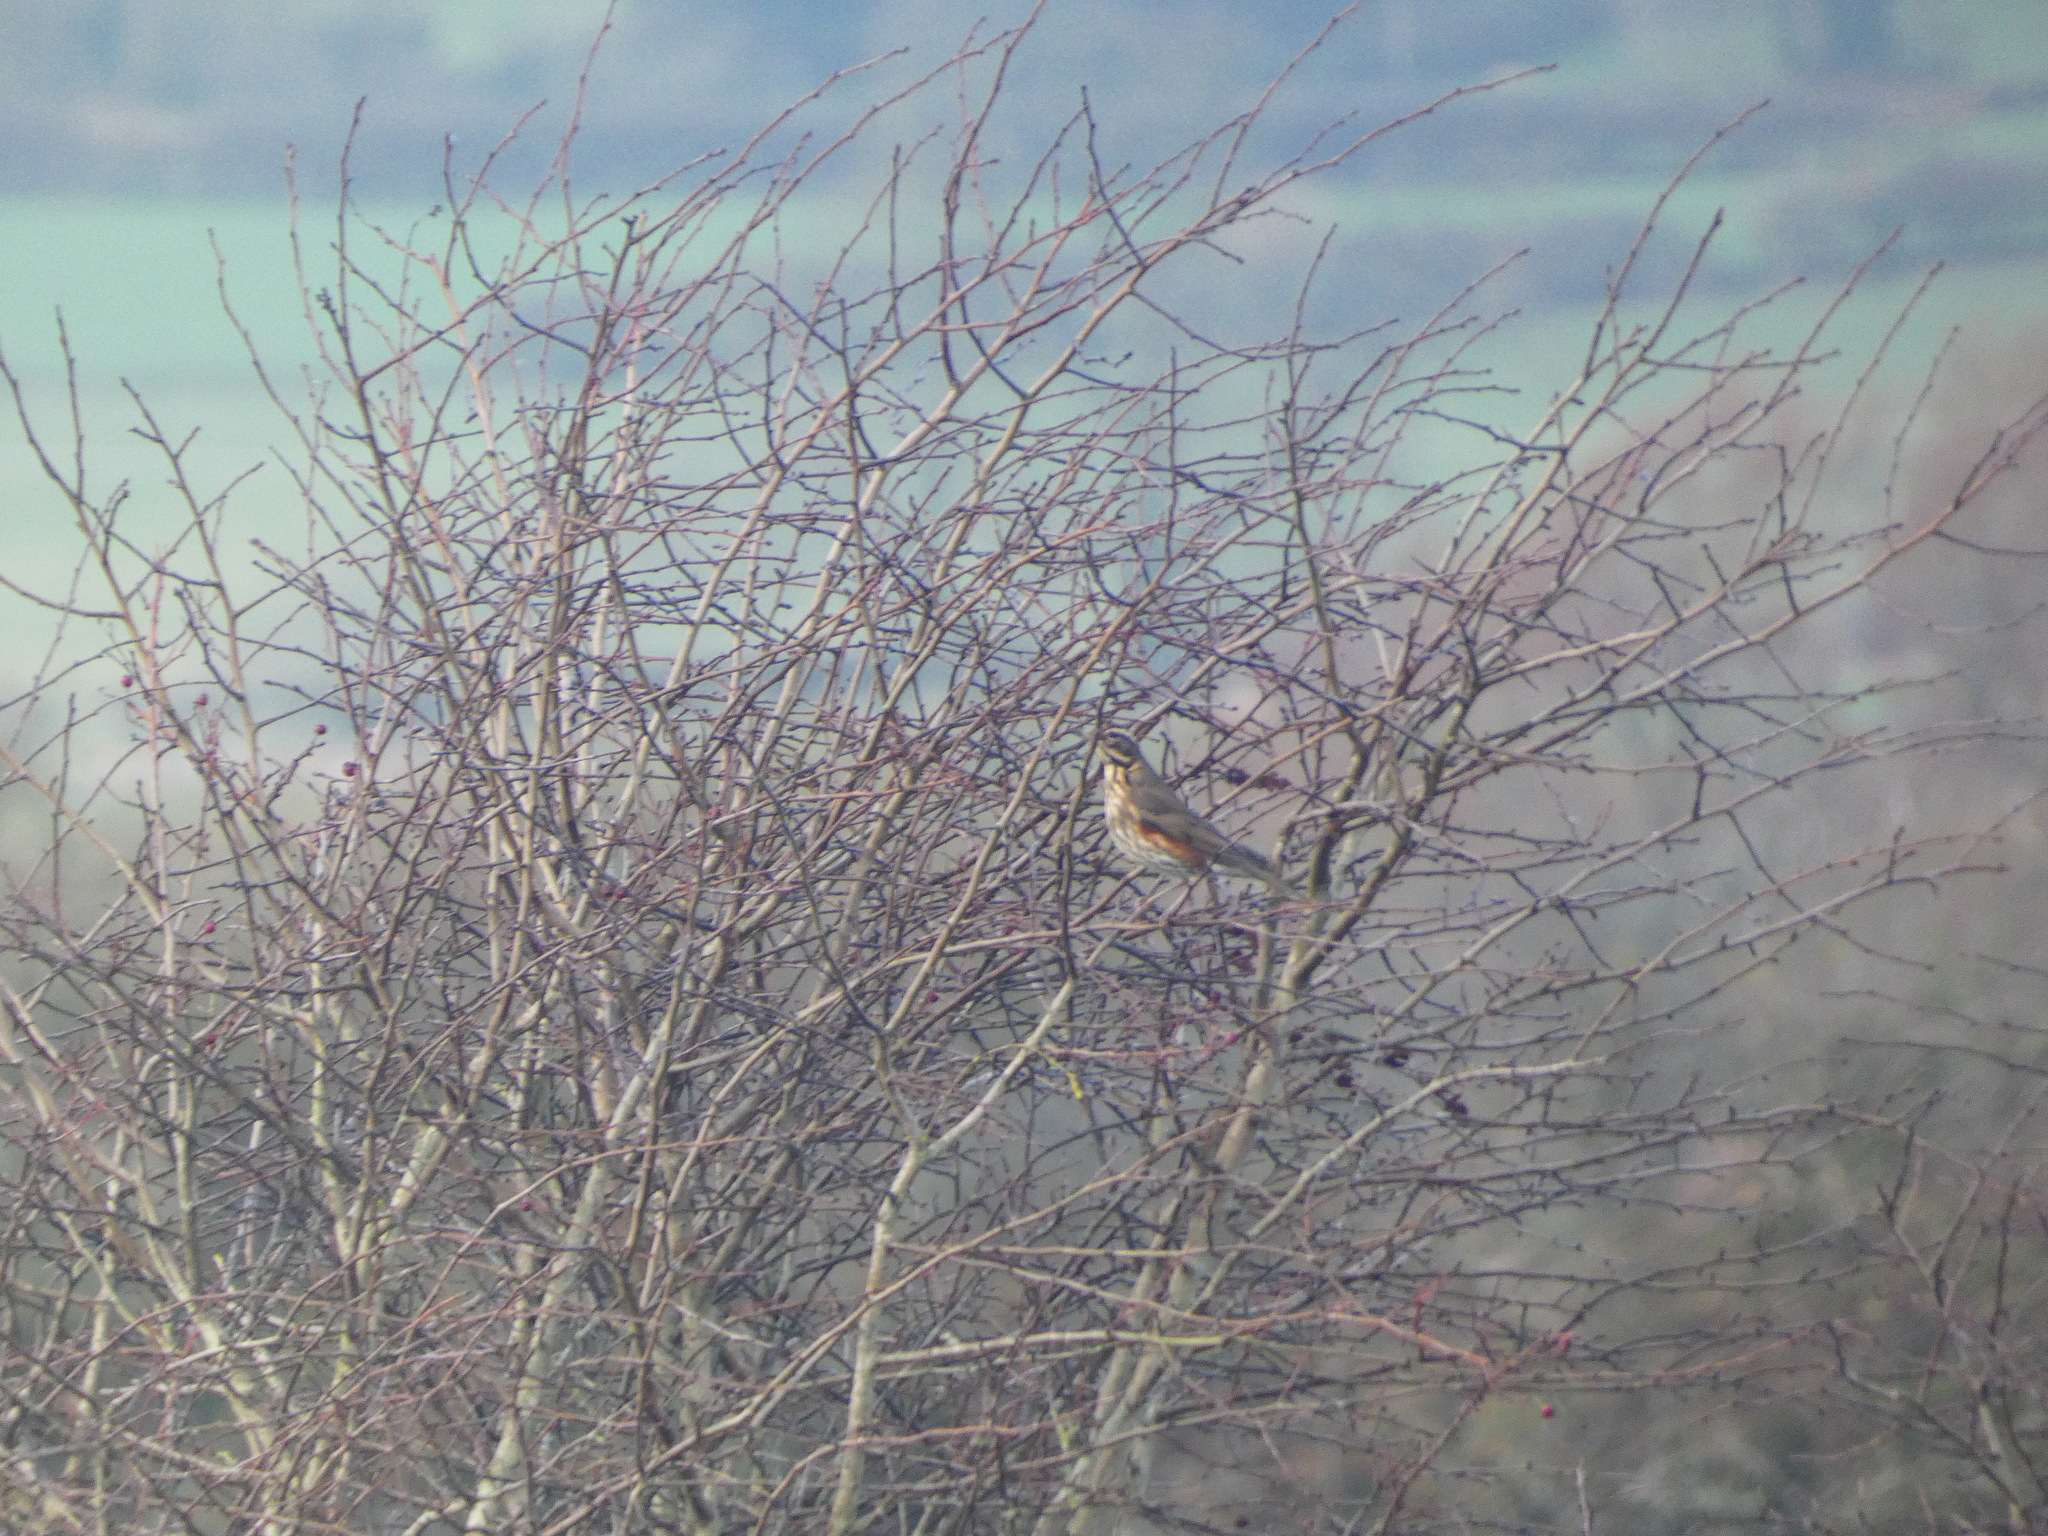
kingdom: Animalia
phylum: Chordata
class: Aves
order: Passeriformes
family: Turdidae
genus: Turdus
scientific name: Turdus iliacus
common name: Redwing
